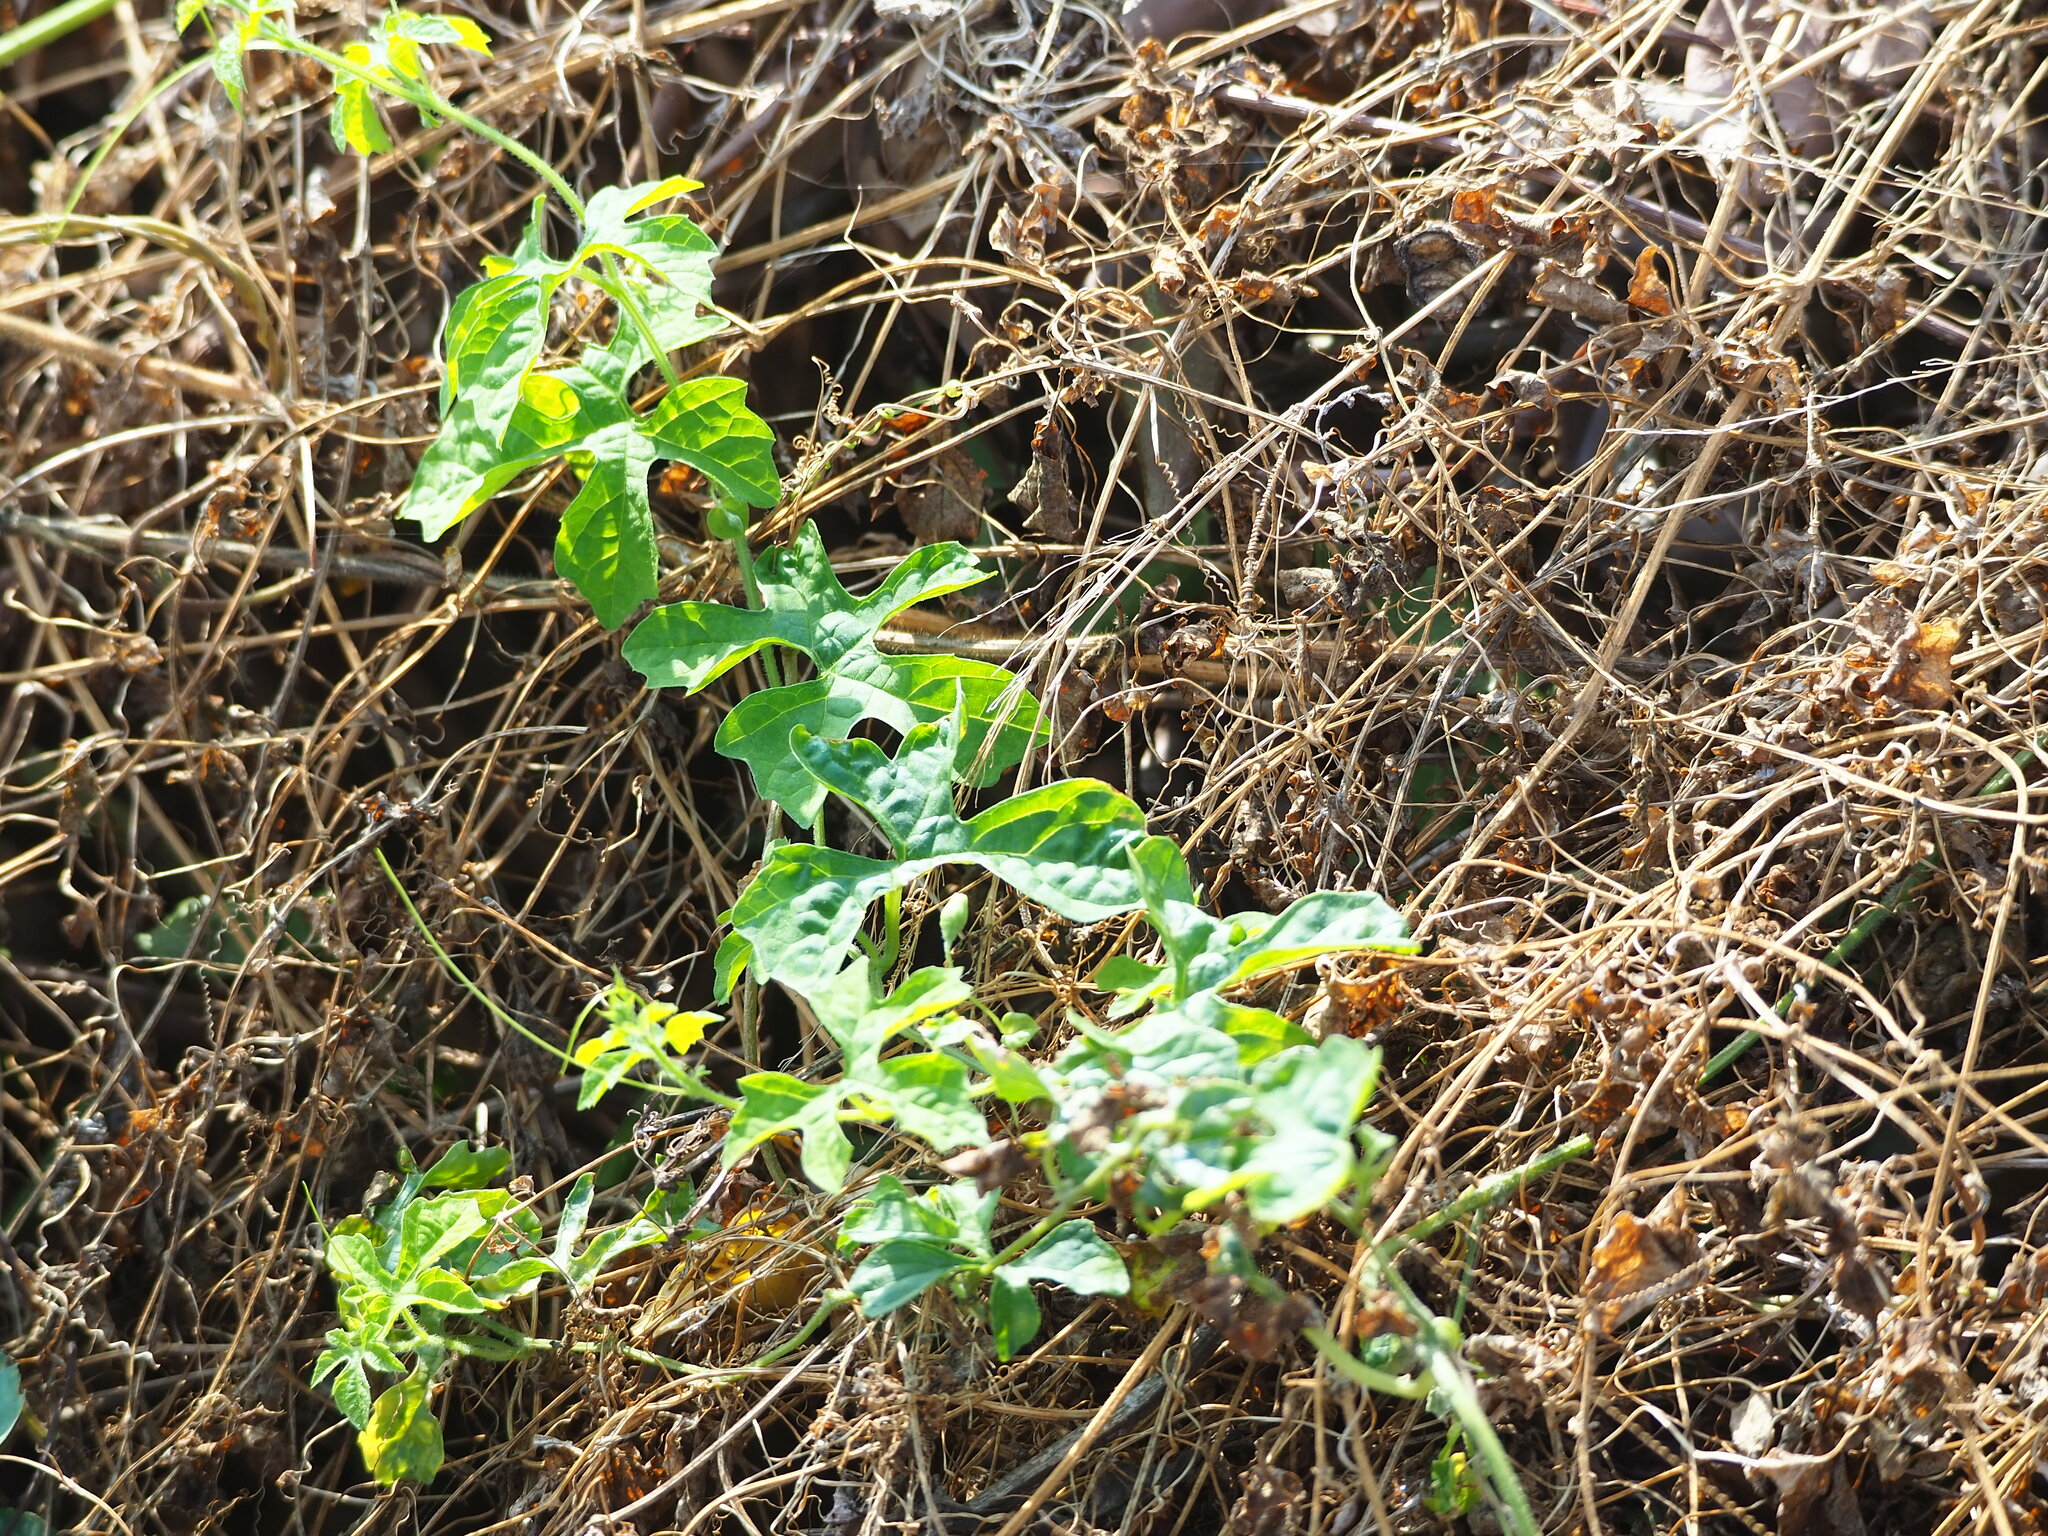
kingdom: Plantae
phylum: Tracheophyta
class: Magnoliopsida
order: Cucurbitales
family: Cucurbitaceae
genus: Momordica
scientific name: Momordica charantia
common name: Balsampear
